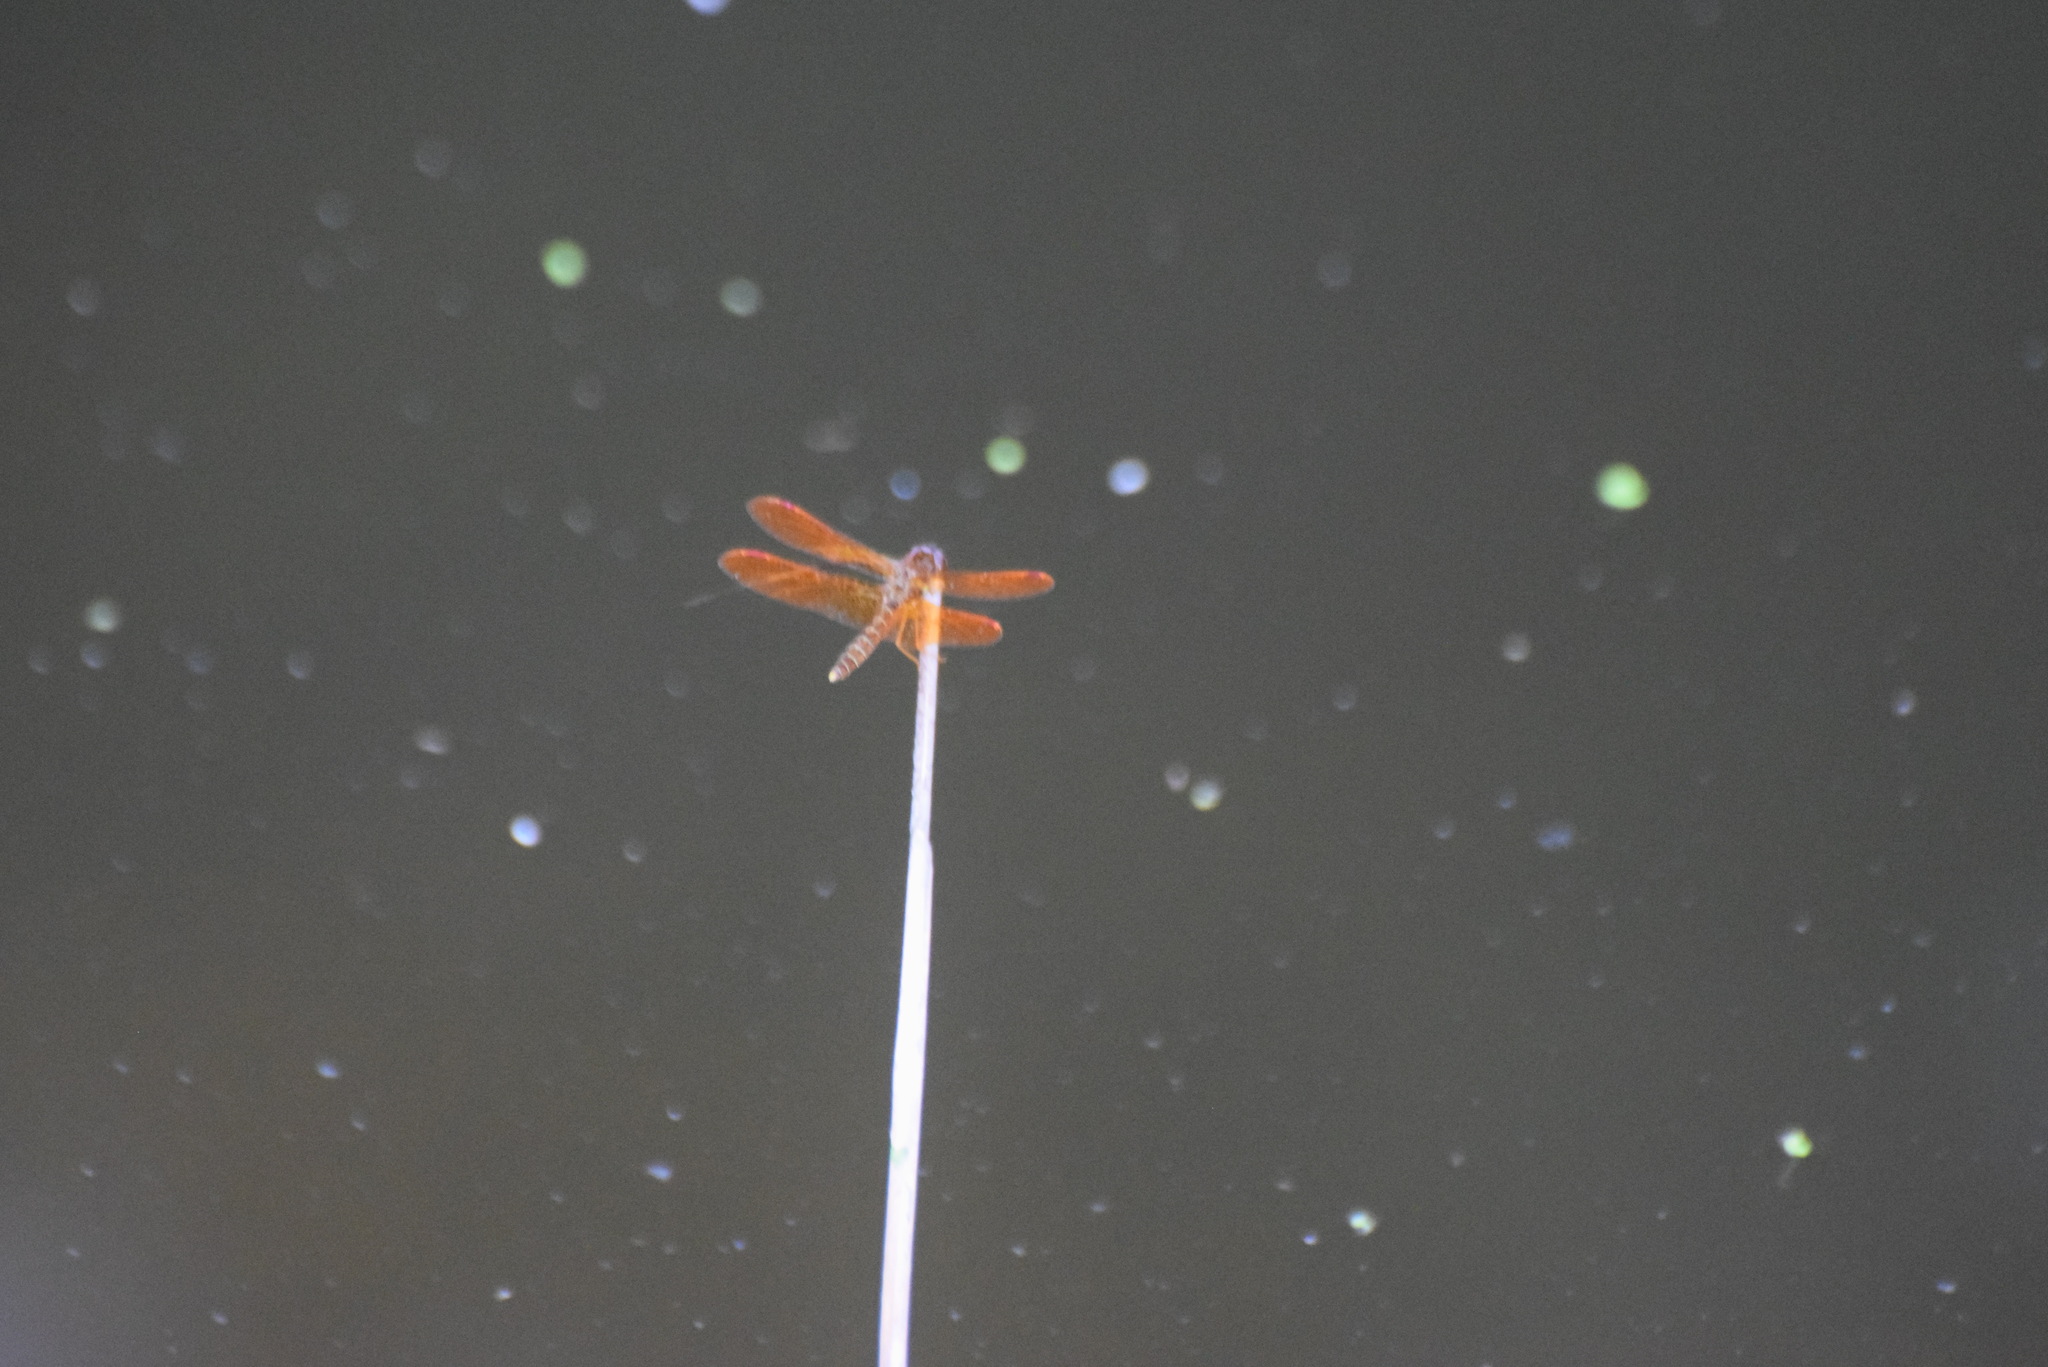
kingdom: Animalia
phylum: Arthropoda
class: Insecta
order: Odonata
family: Libellulidae
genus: Perithemis
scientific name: Perithemis tenera
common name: Eastern amberwing
